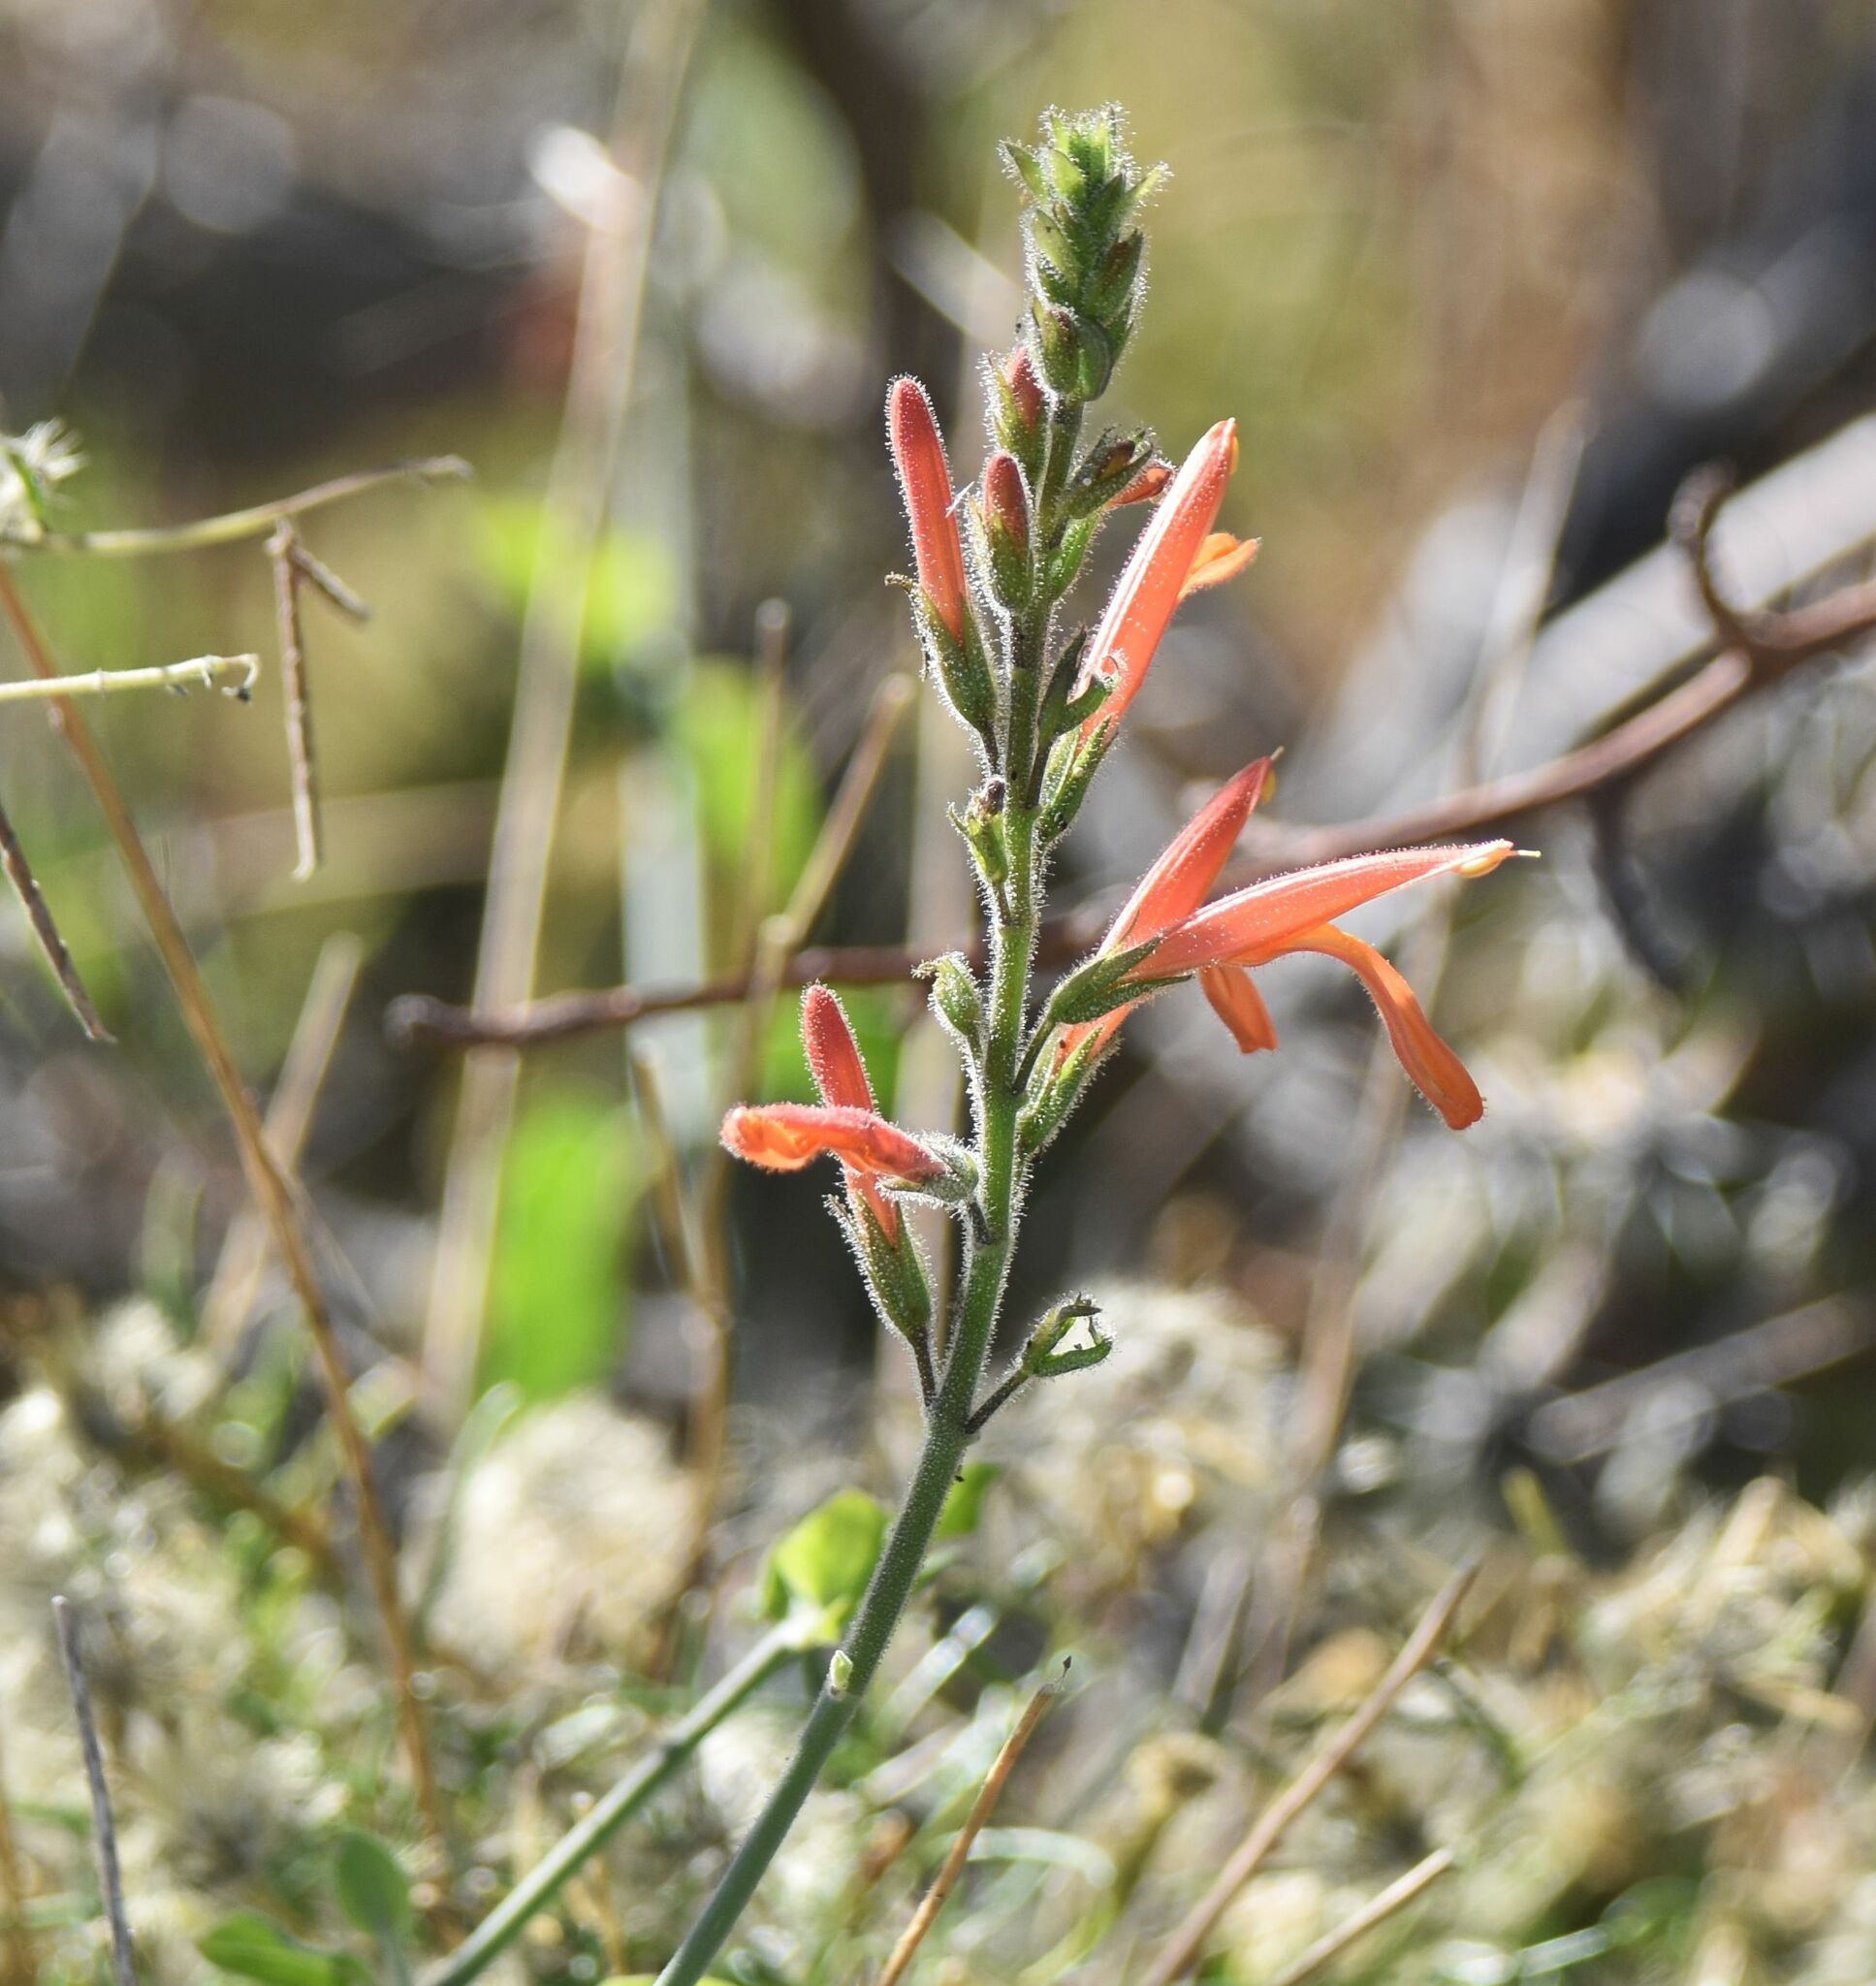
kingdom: Plantae
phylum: Tracheophyta
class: Magnoliopsida
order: Lamiales
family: Acanthaceae
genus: Justicia
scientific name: Justicia californica
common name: Chuparosa-honeysuckle
